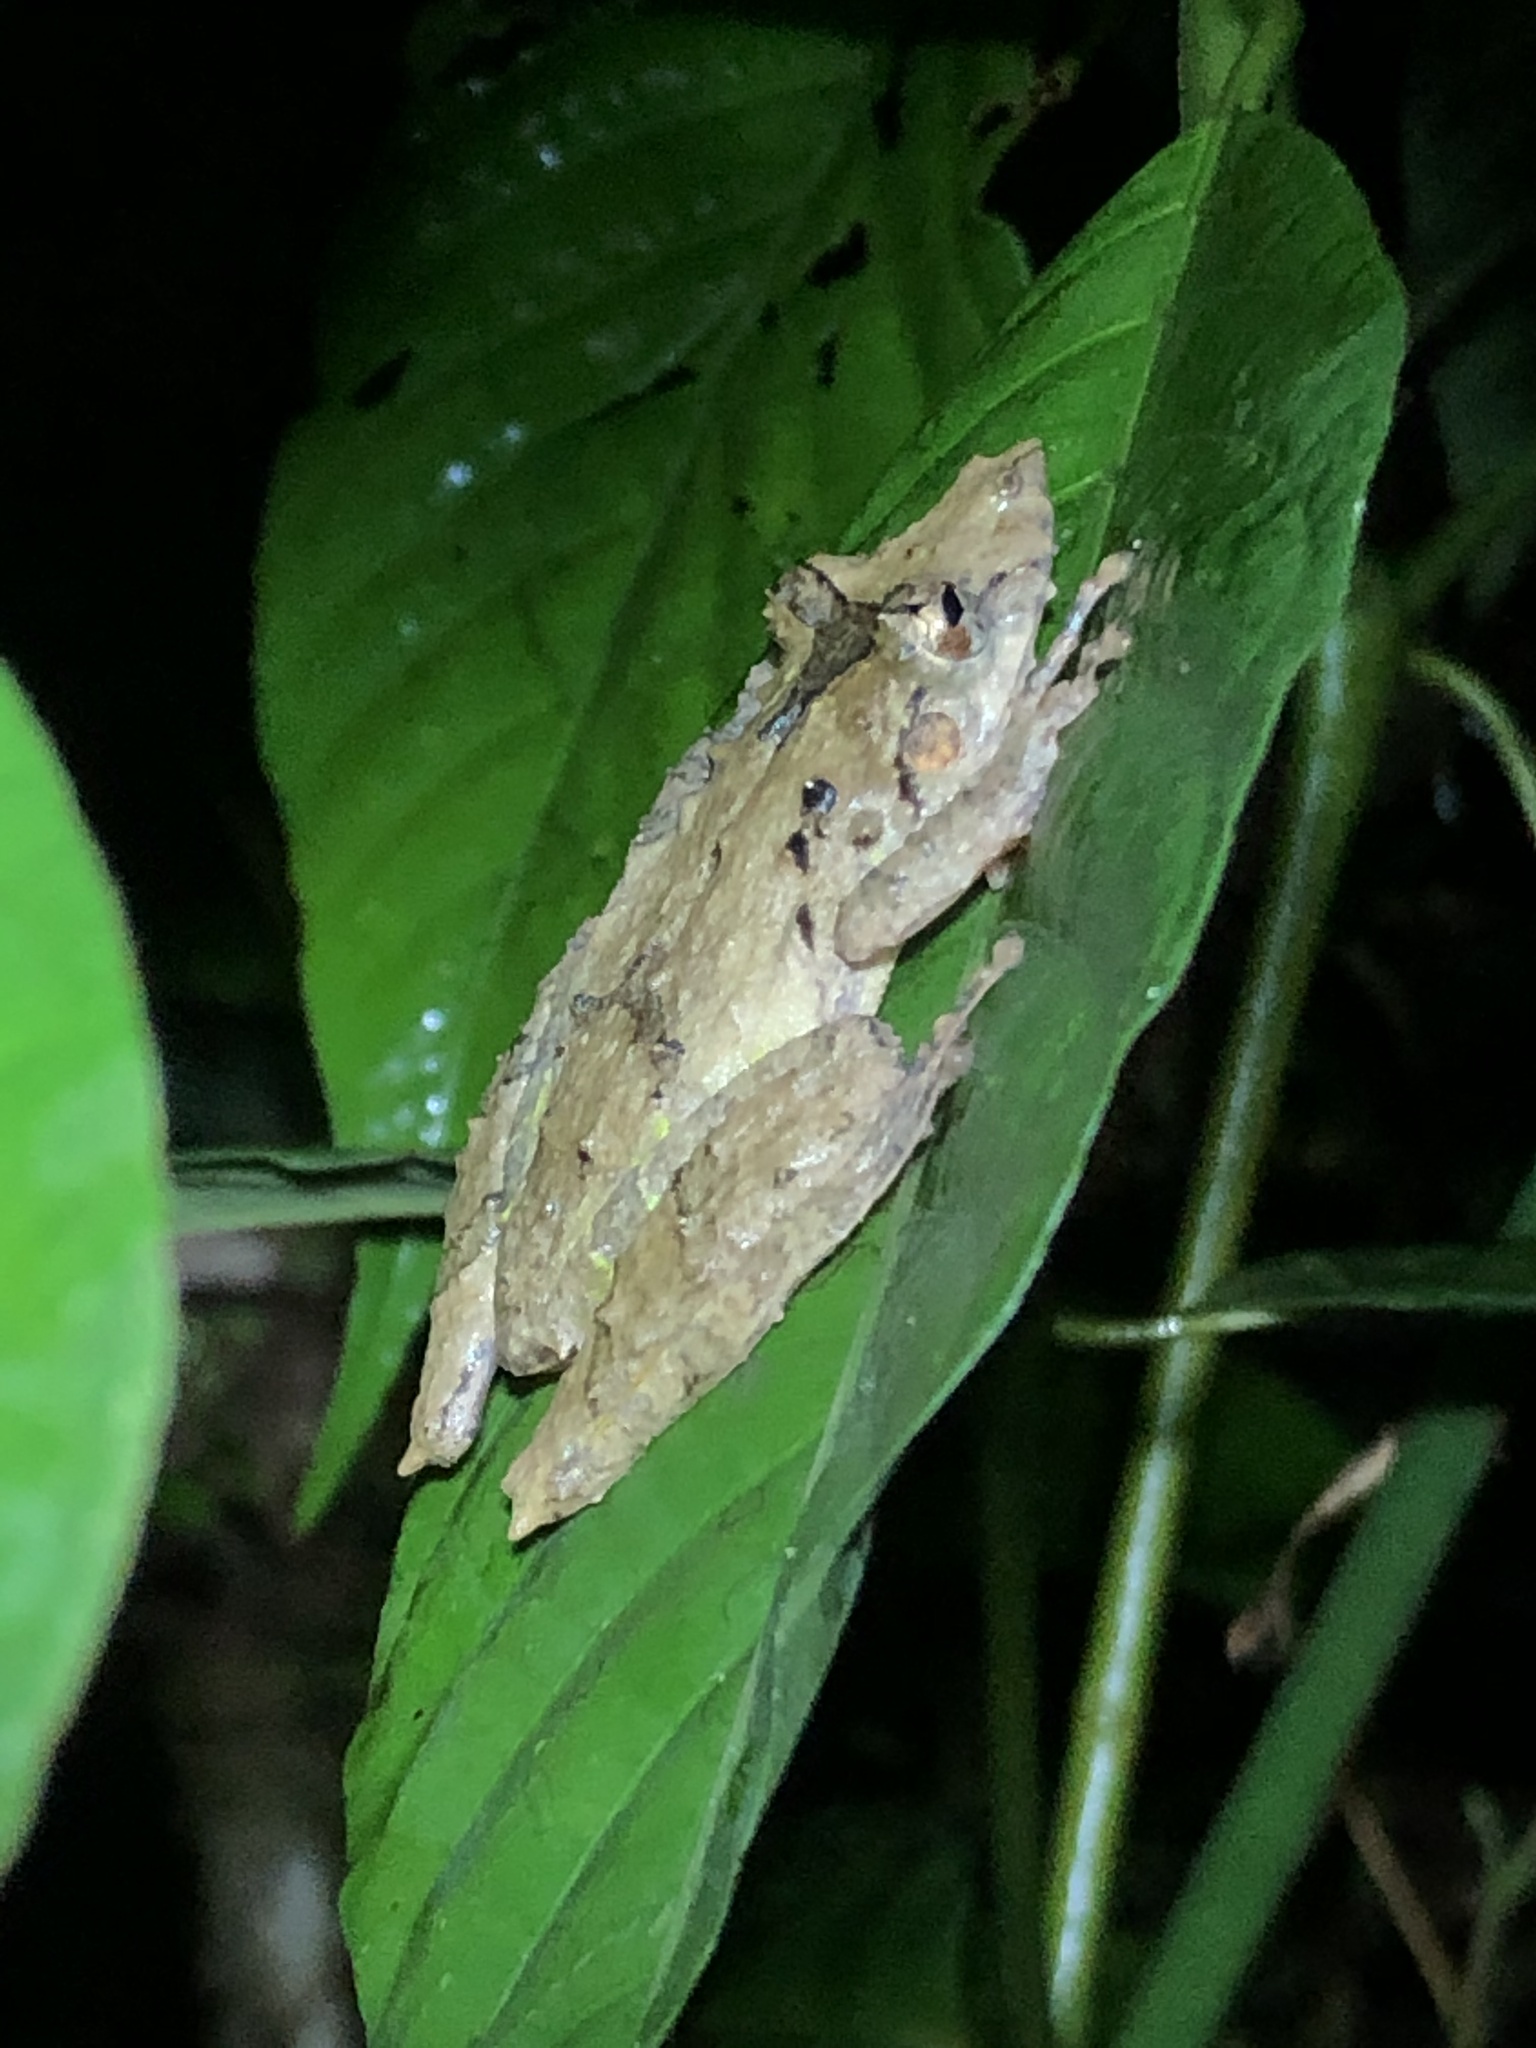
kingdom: Animalia
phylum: Chordata
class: Amphibia
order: Anura
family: Hylidae
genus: Scinax
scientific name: Scinax garbei
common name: Eirunepe snouted treefrog
